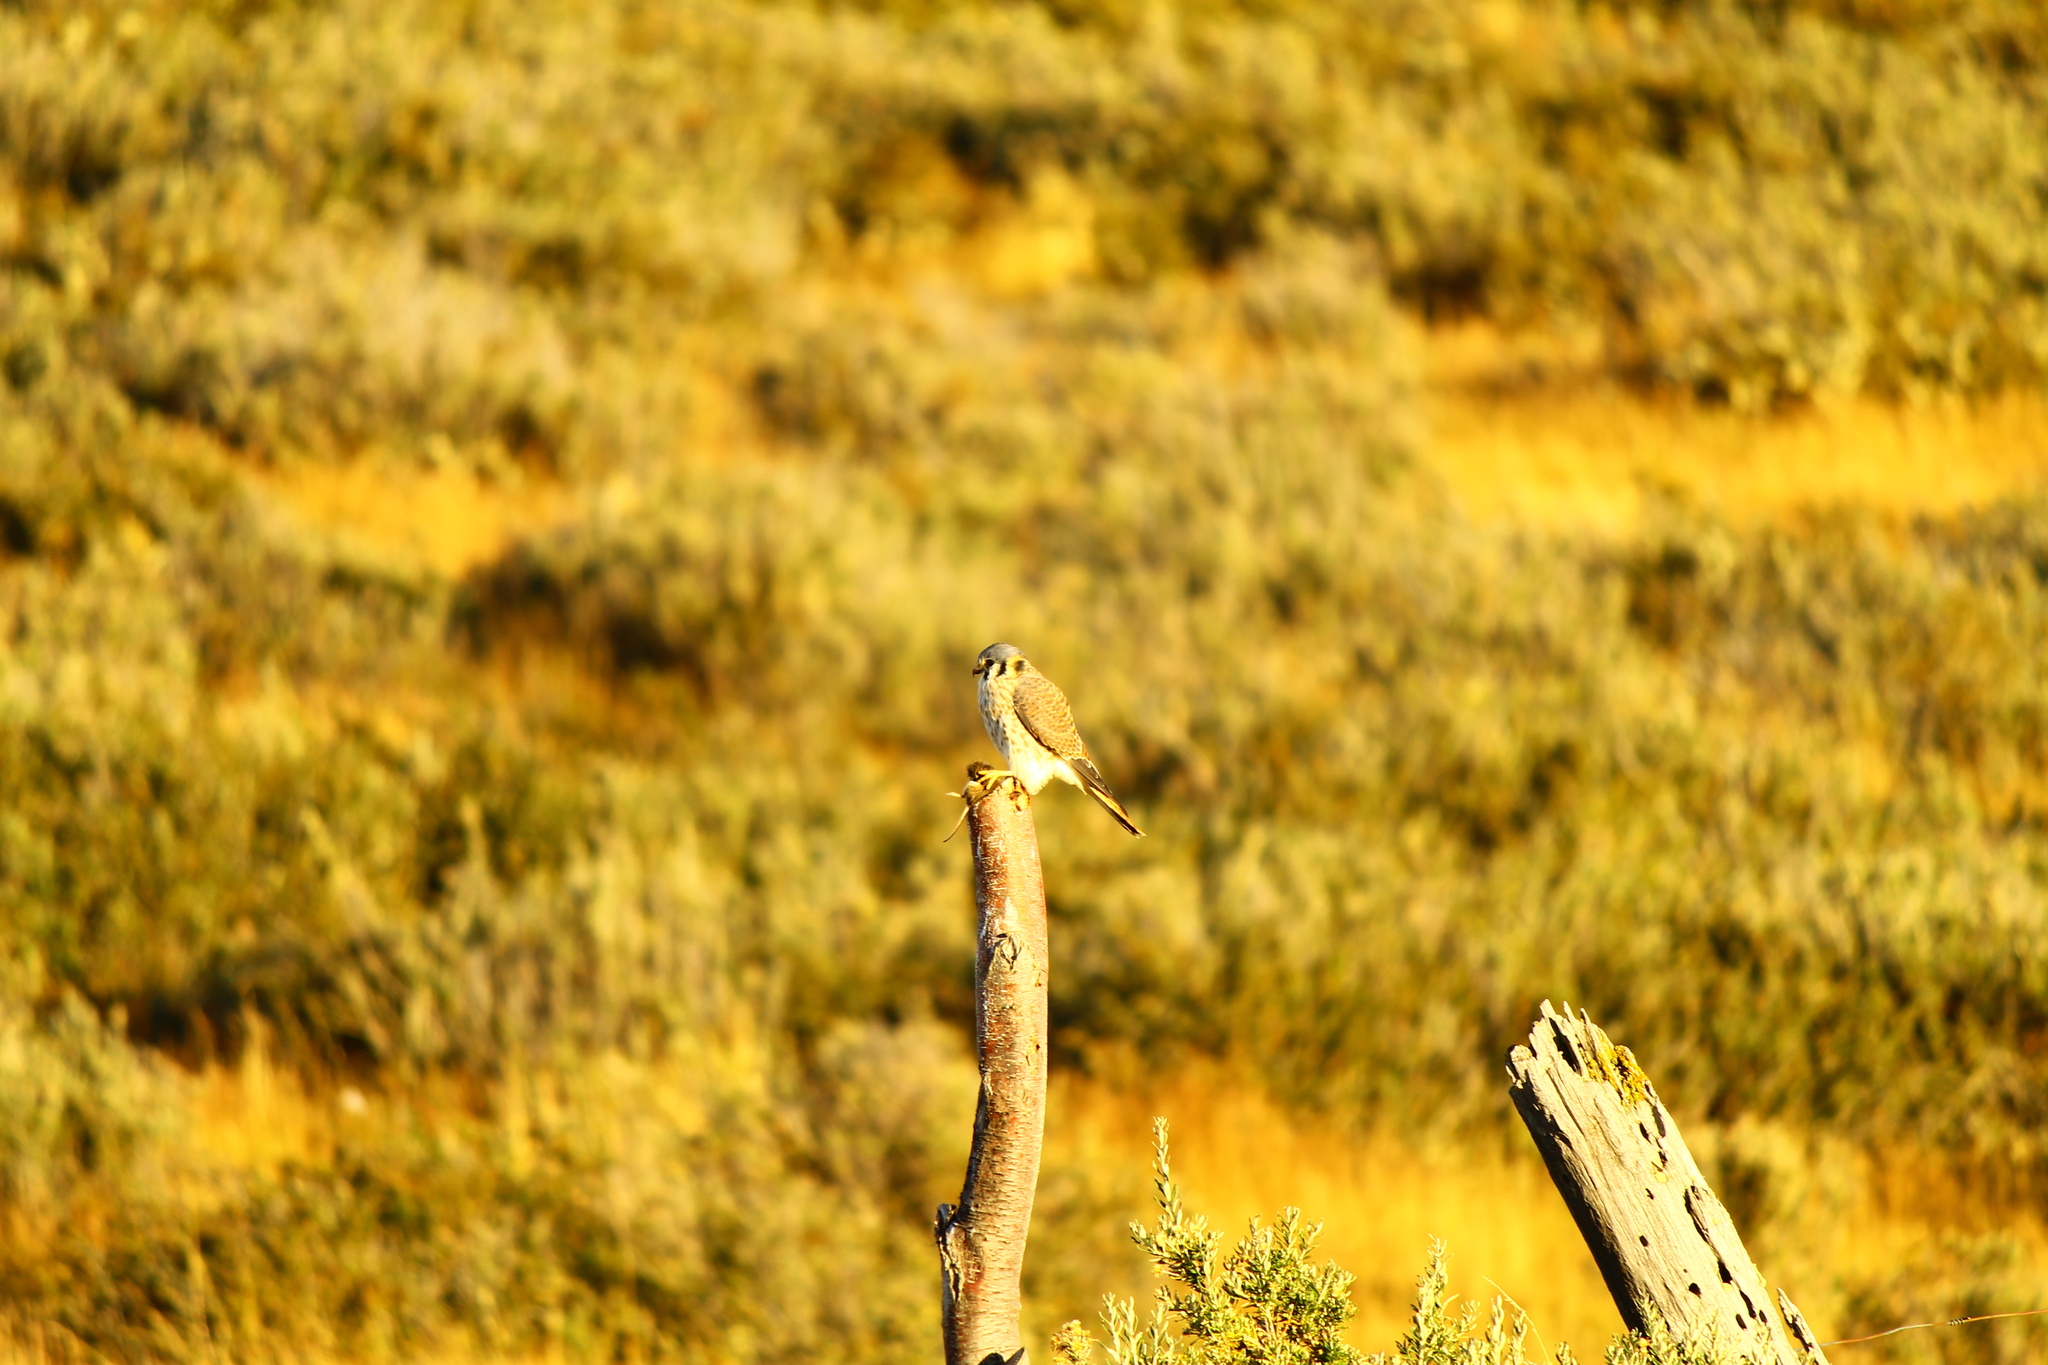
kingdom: Animalia
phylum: Chordata
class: Aves
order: Falconiformes
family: Falconidae
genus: Falco
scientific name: Falco sparverius
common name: American kestrel
